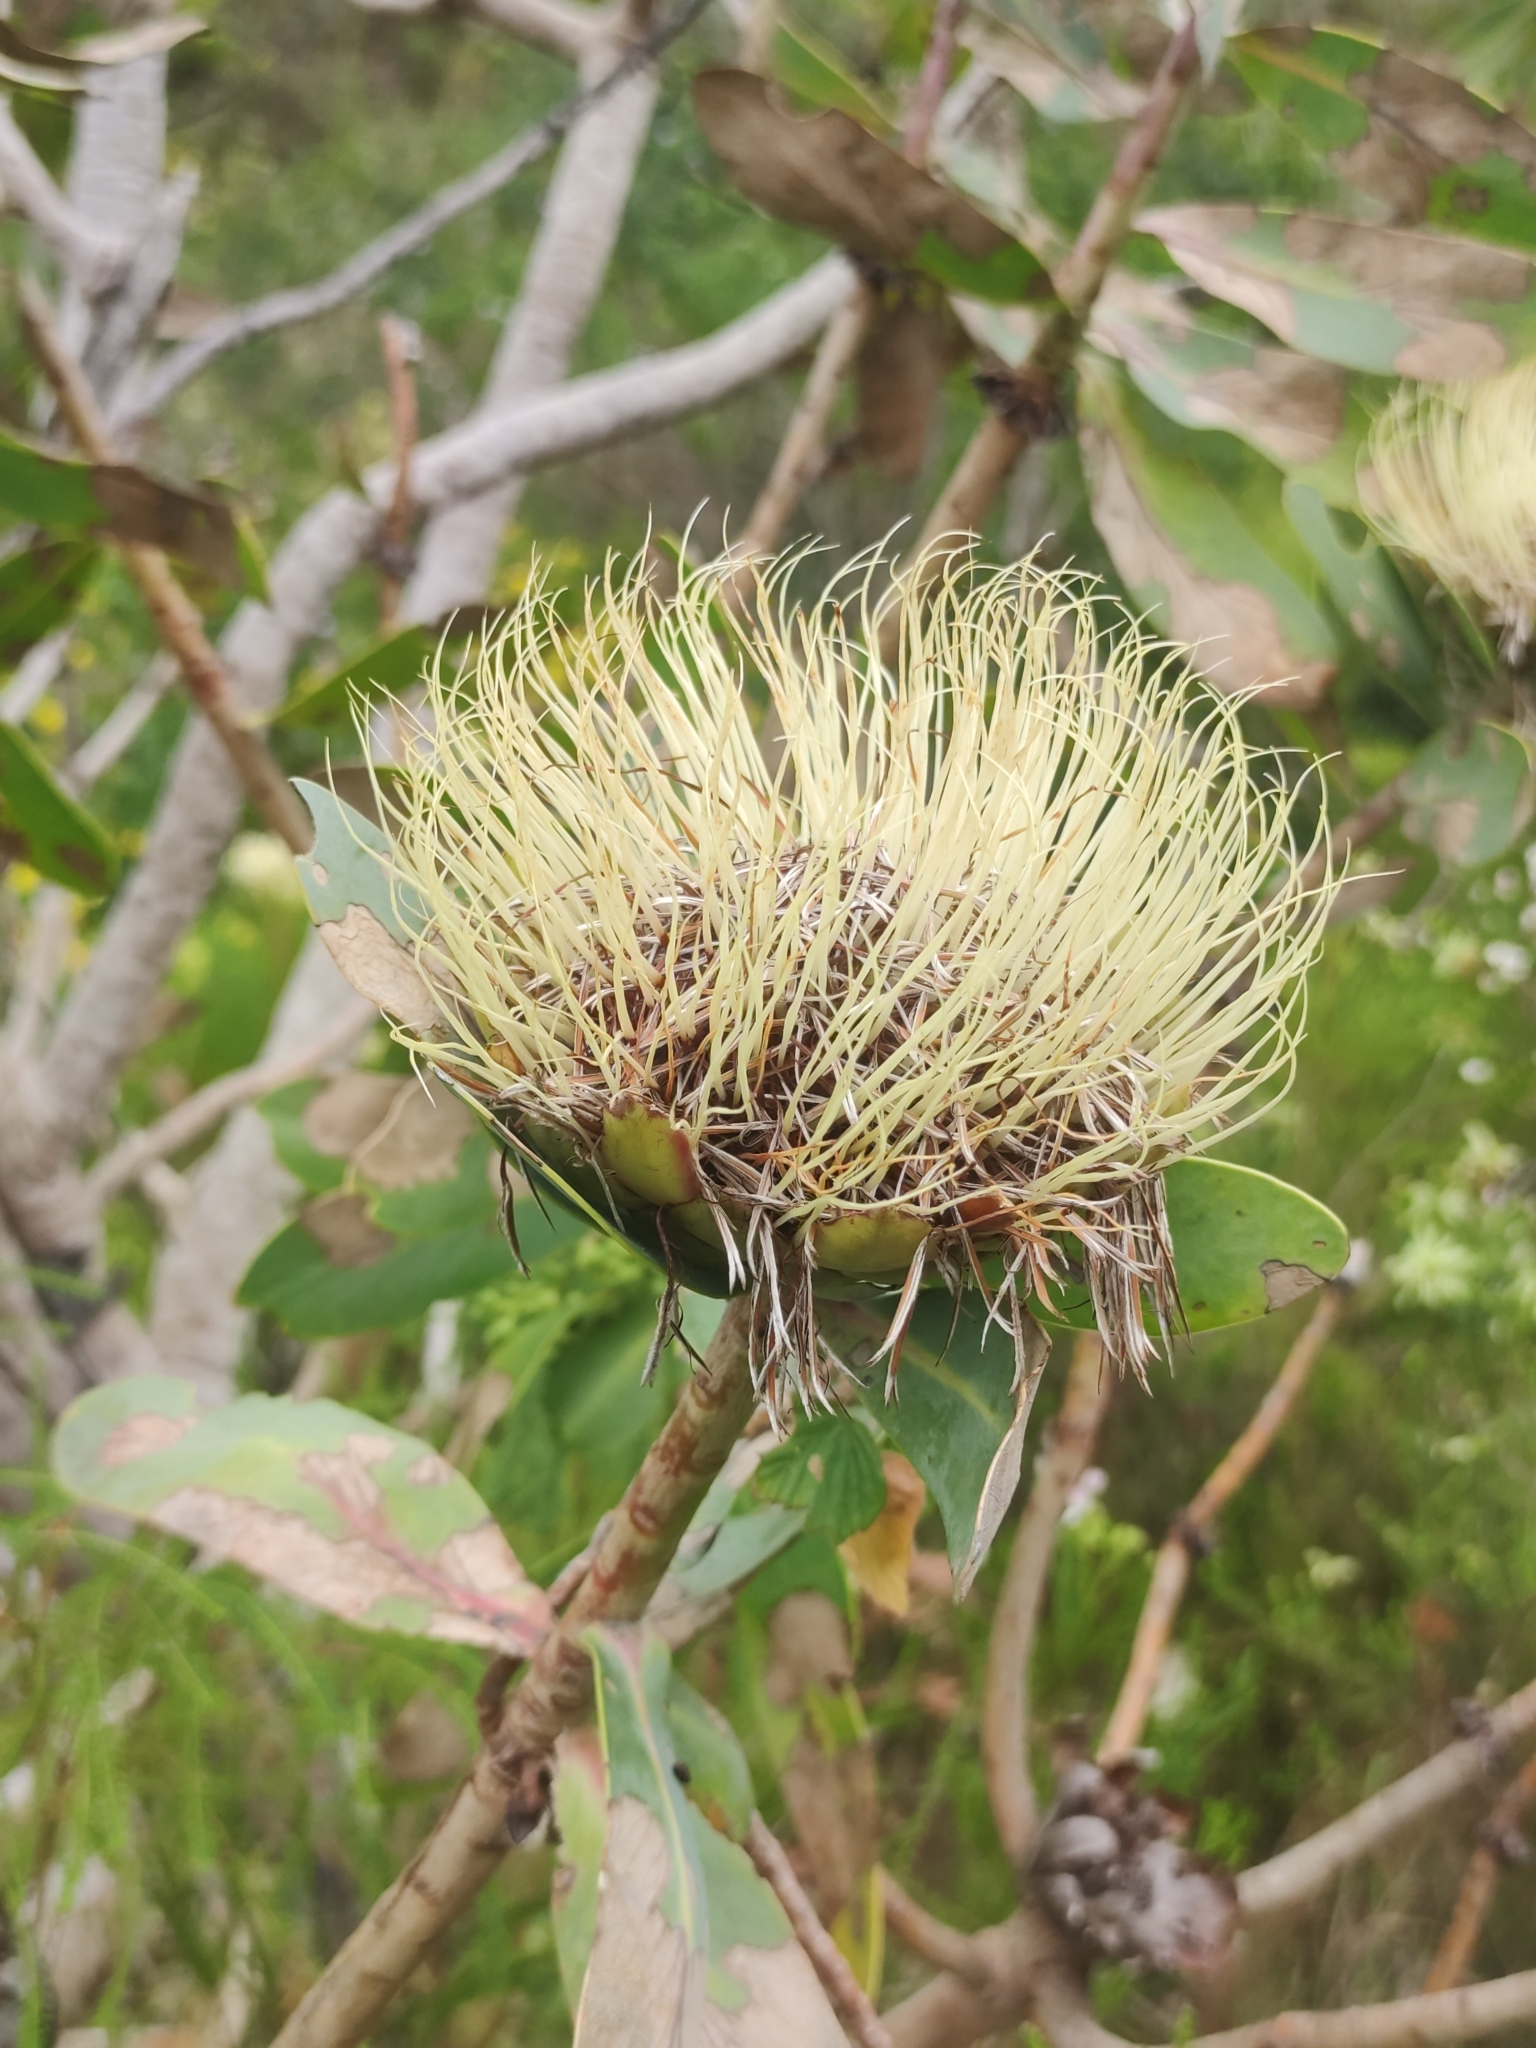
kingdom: Plantae
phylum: Tracheophyta
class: Magnoliopsida
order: Proteales
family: Proteaceae
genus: Protea
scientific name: Protea nitida
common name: Tree protea
